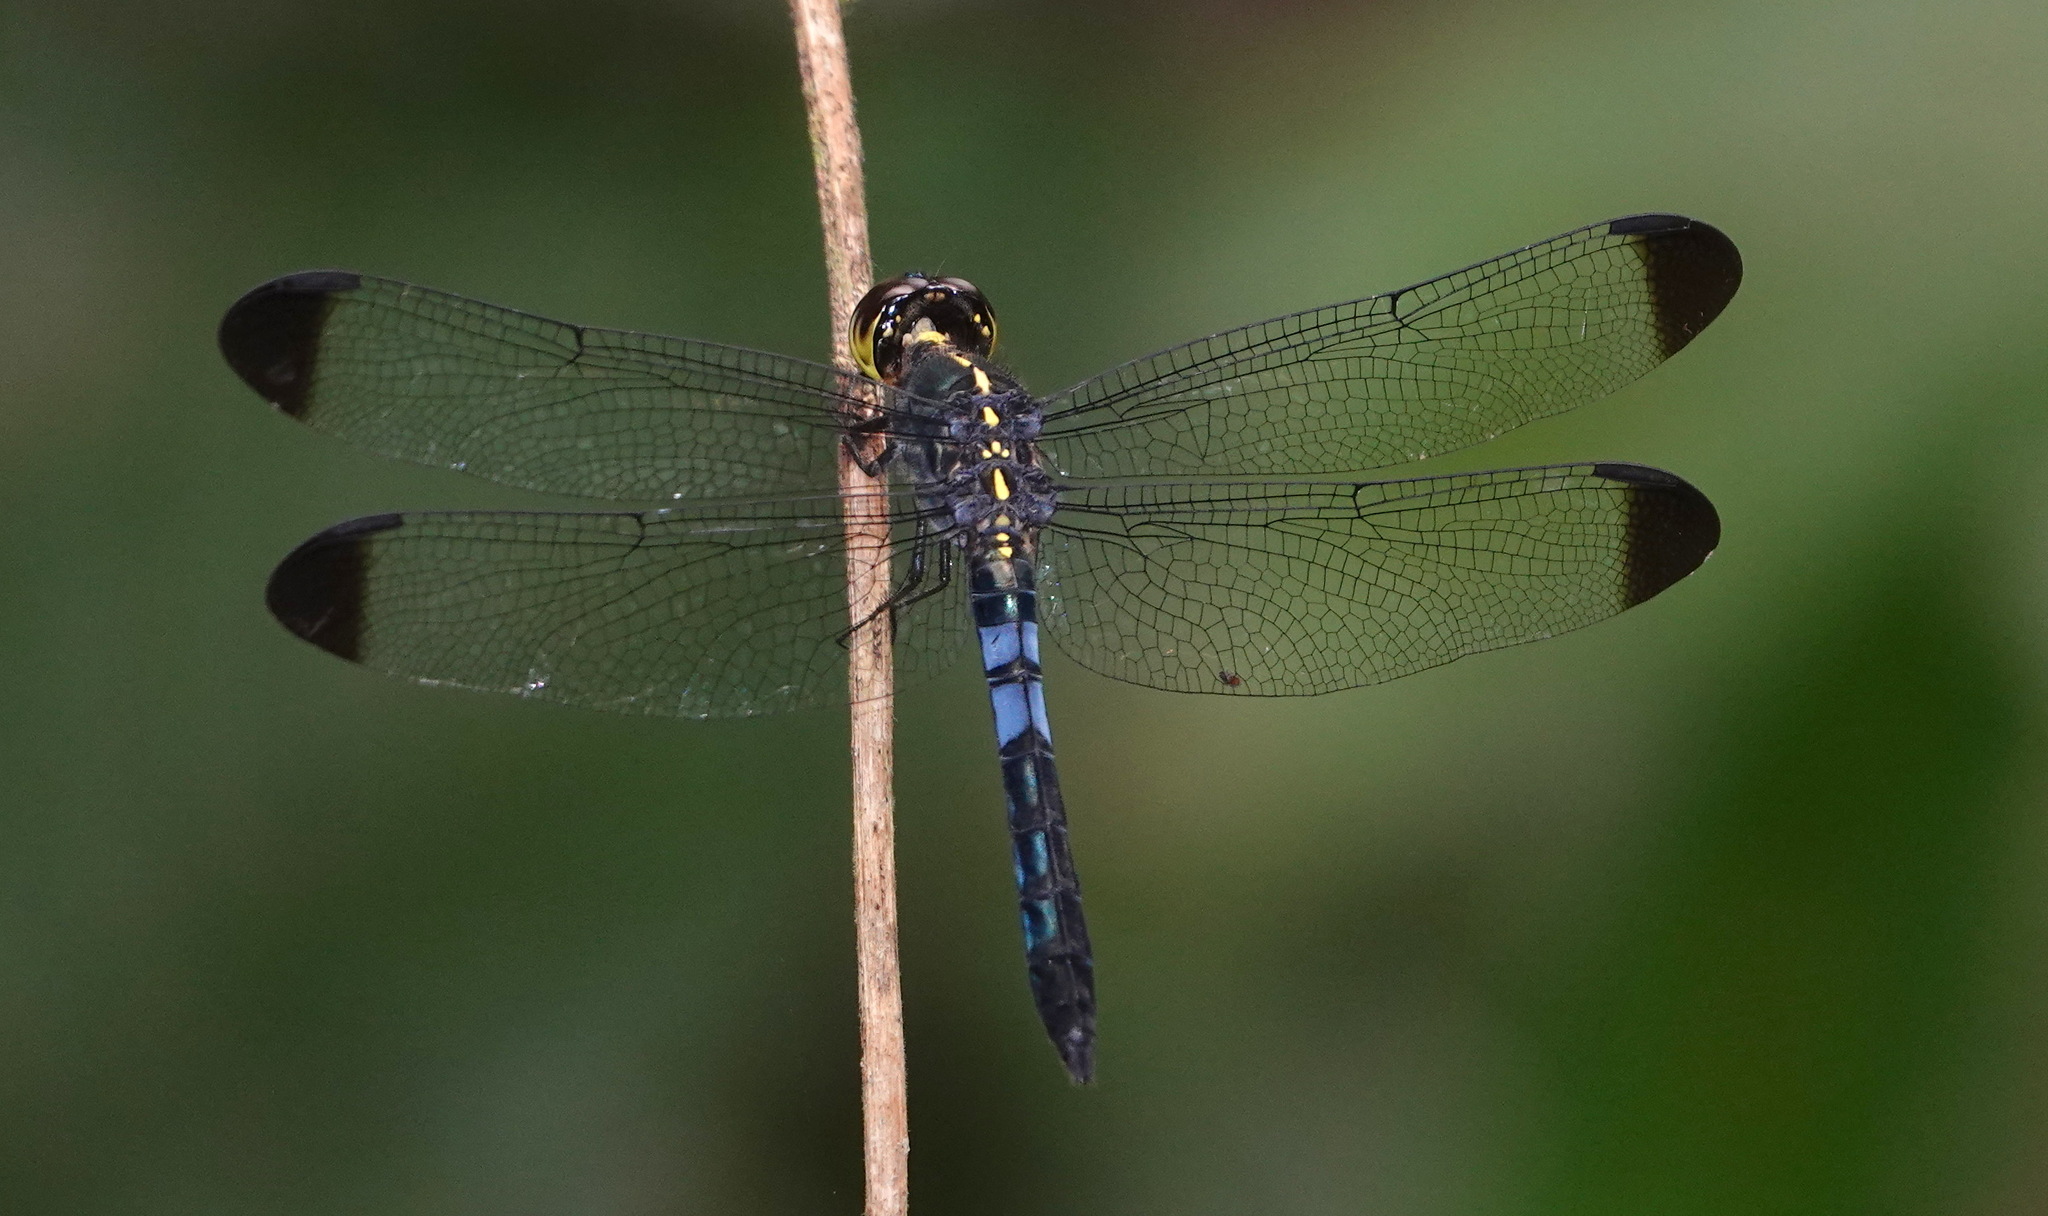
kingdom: Animalia
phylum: Arthropoda
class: Insecta
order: Odonata
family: Libellulidae
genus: Cratilla
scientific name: Cratilla metallica
